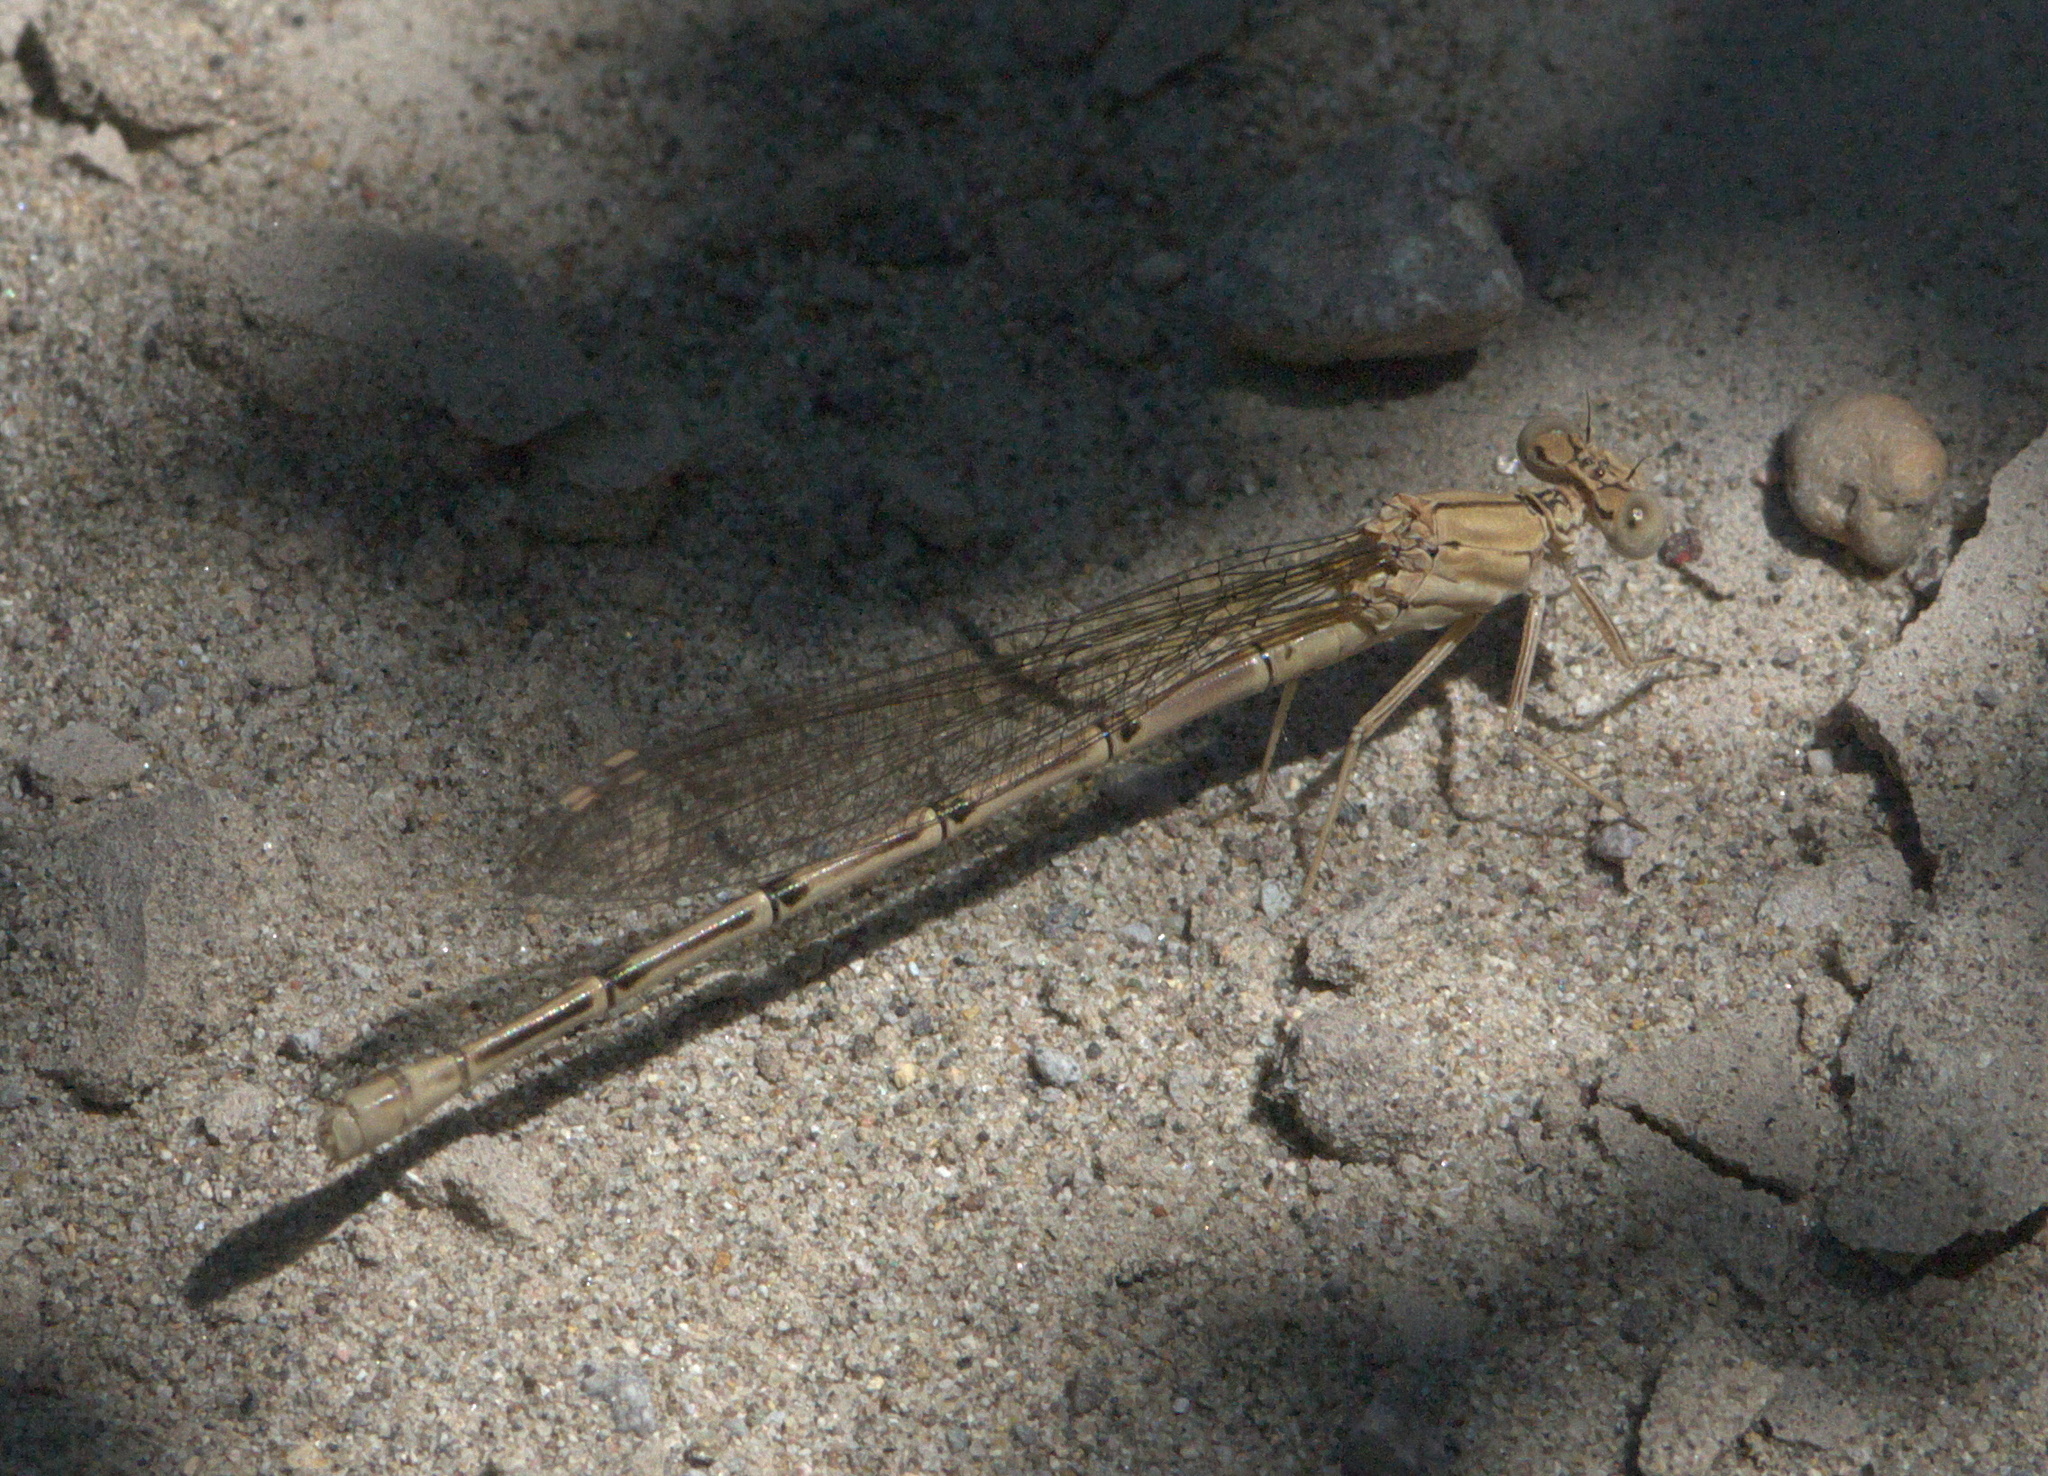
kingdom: Animalia
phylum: Arthropoda
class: Insecta
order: Odonata
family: Coenagrionidae
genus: Argia
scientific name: Argia emma
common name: Emma's dancer
